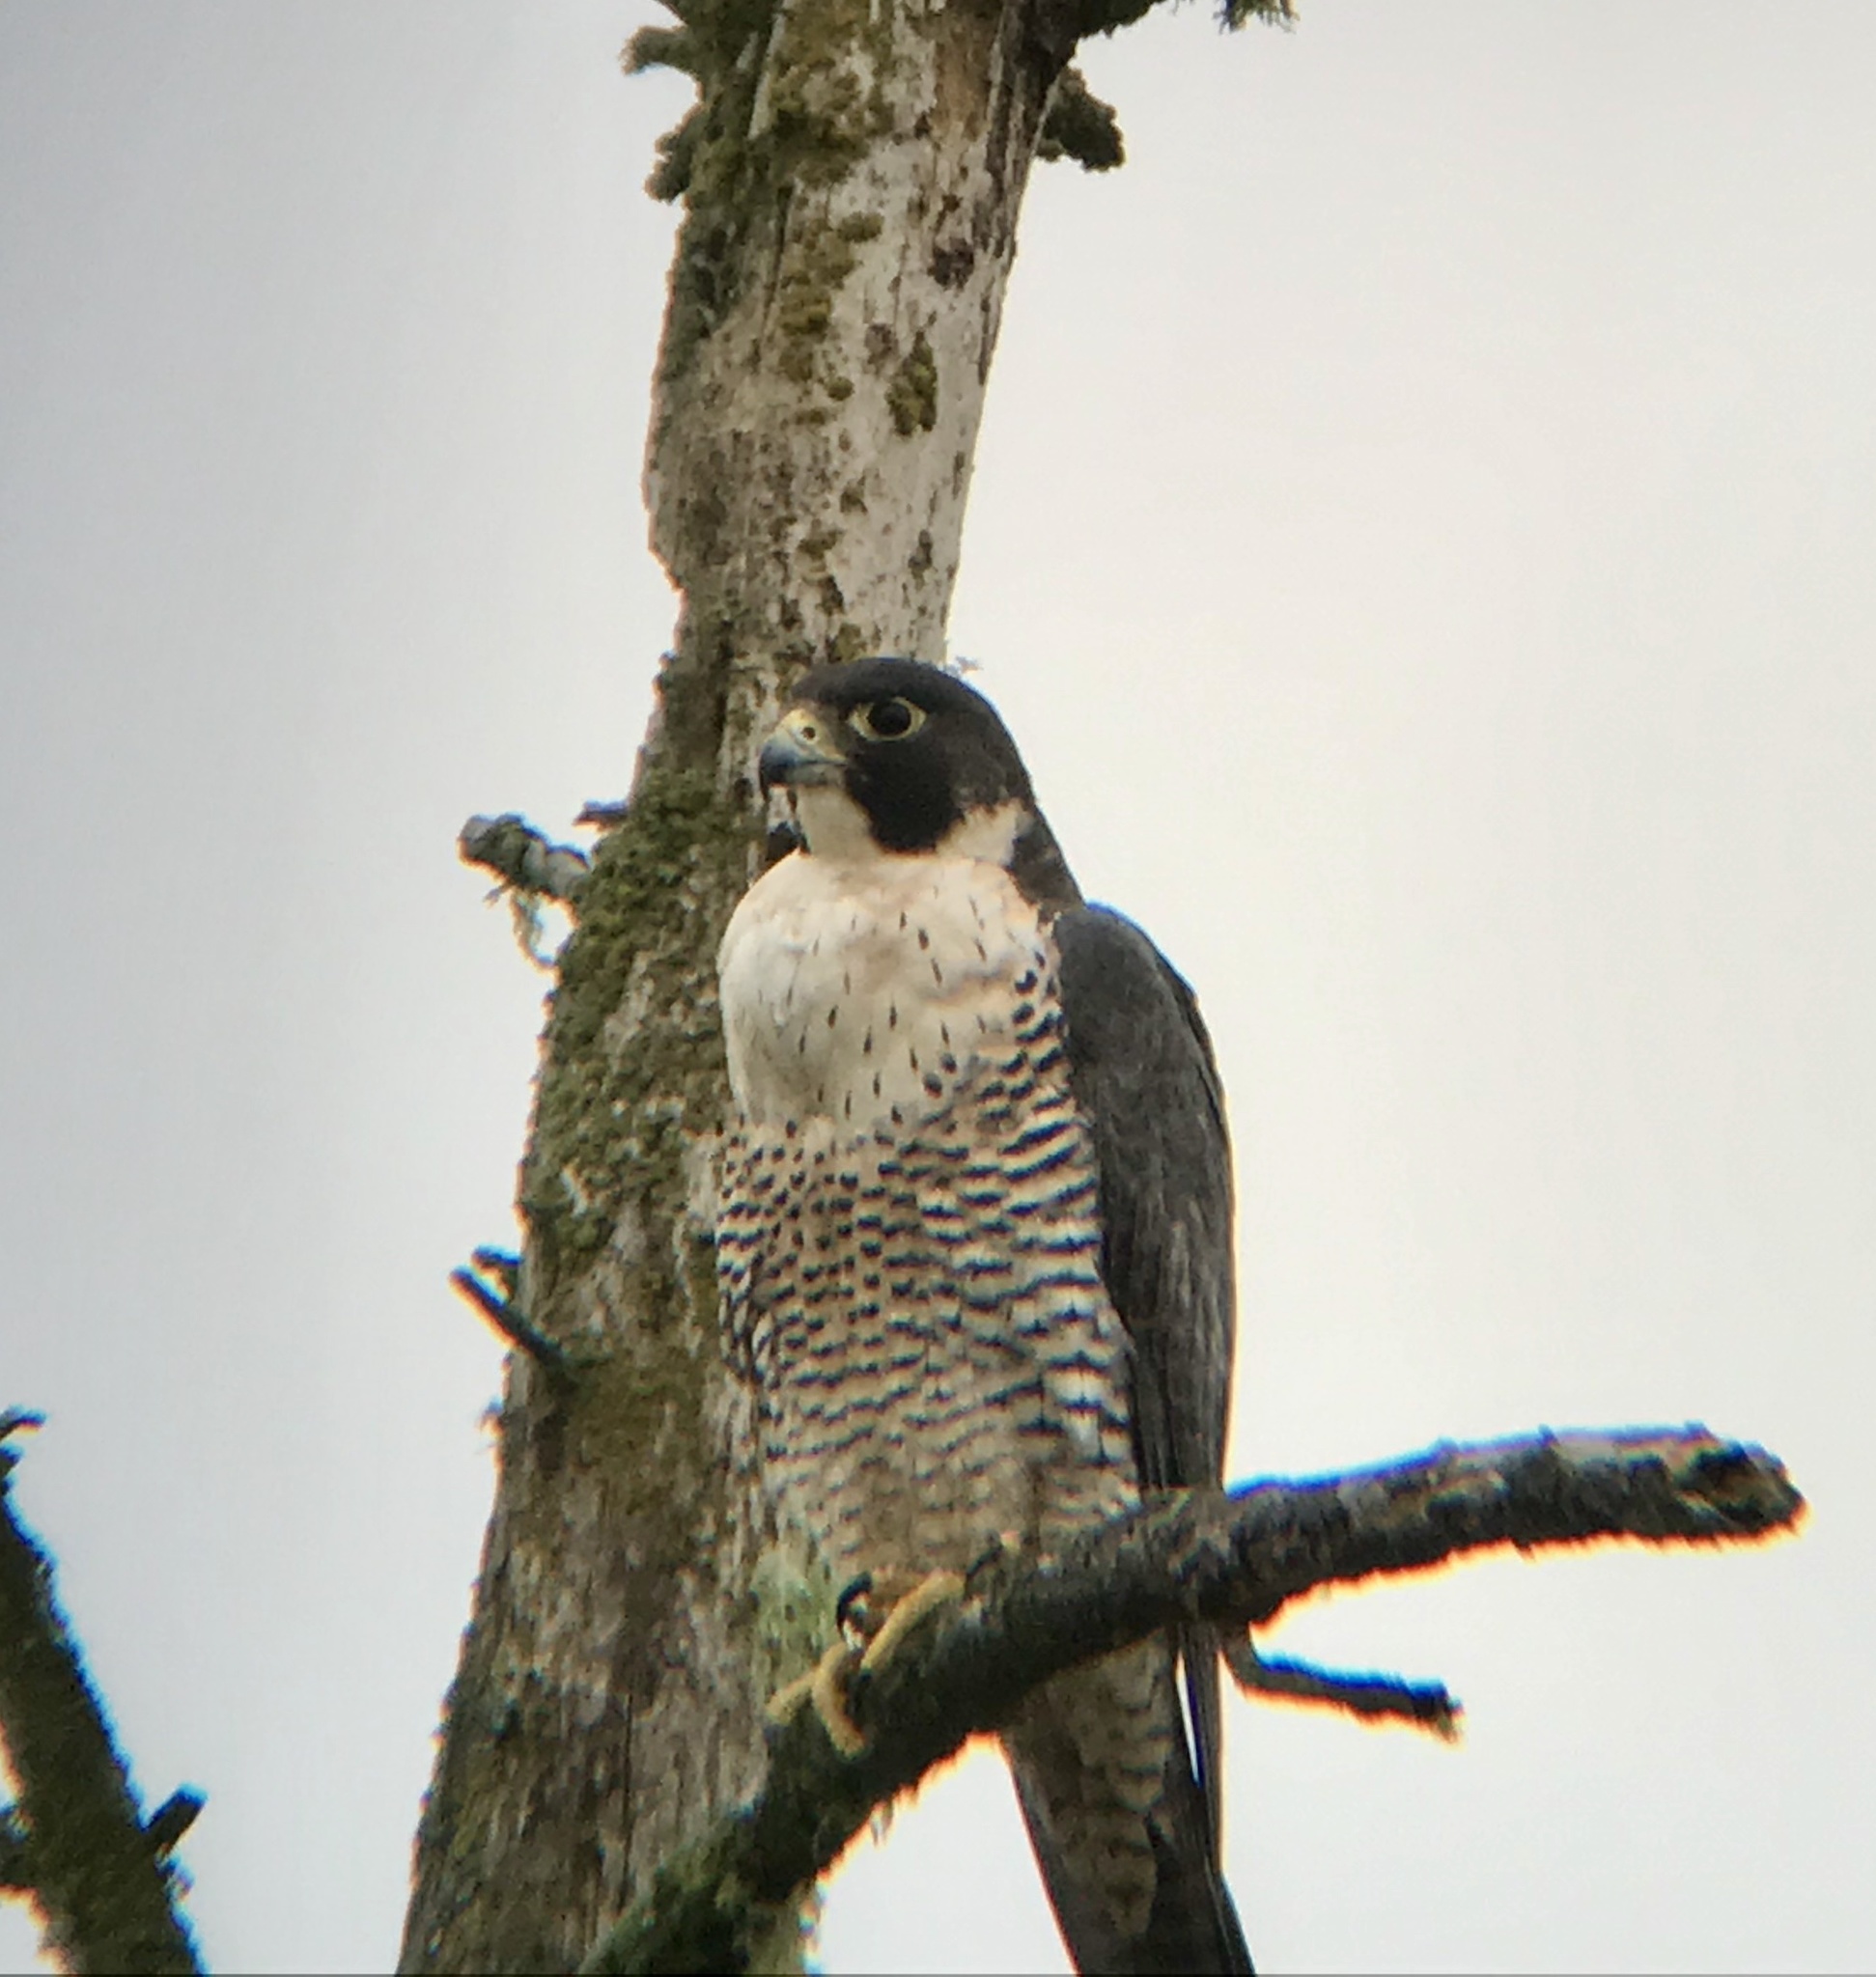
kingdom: Animalia
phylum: Chordata
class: Aves
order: Falconiformes
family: Falconidae
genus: Falco
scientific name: Falco peregrinus
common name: Peregrine falcon
